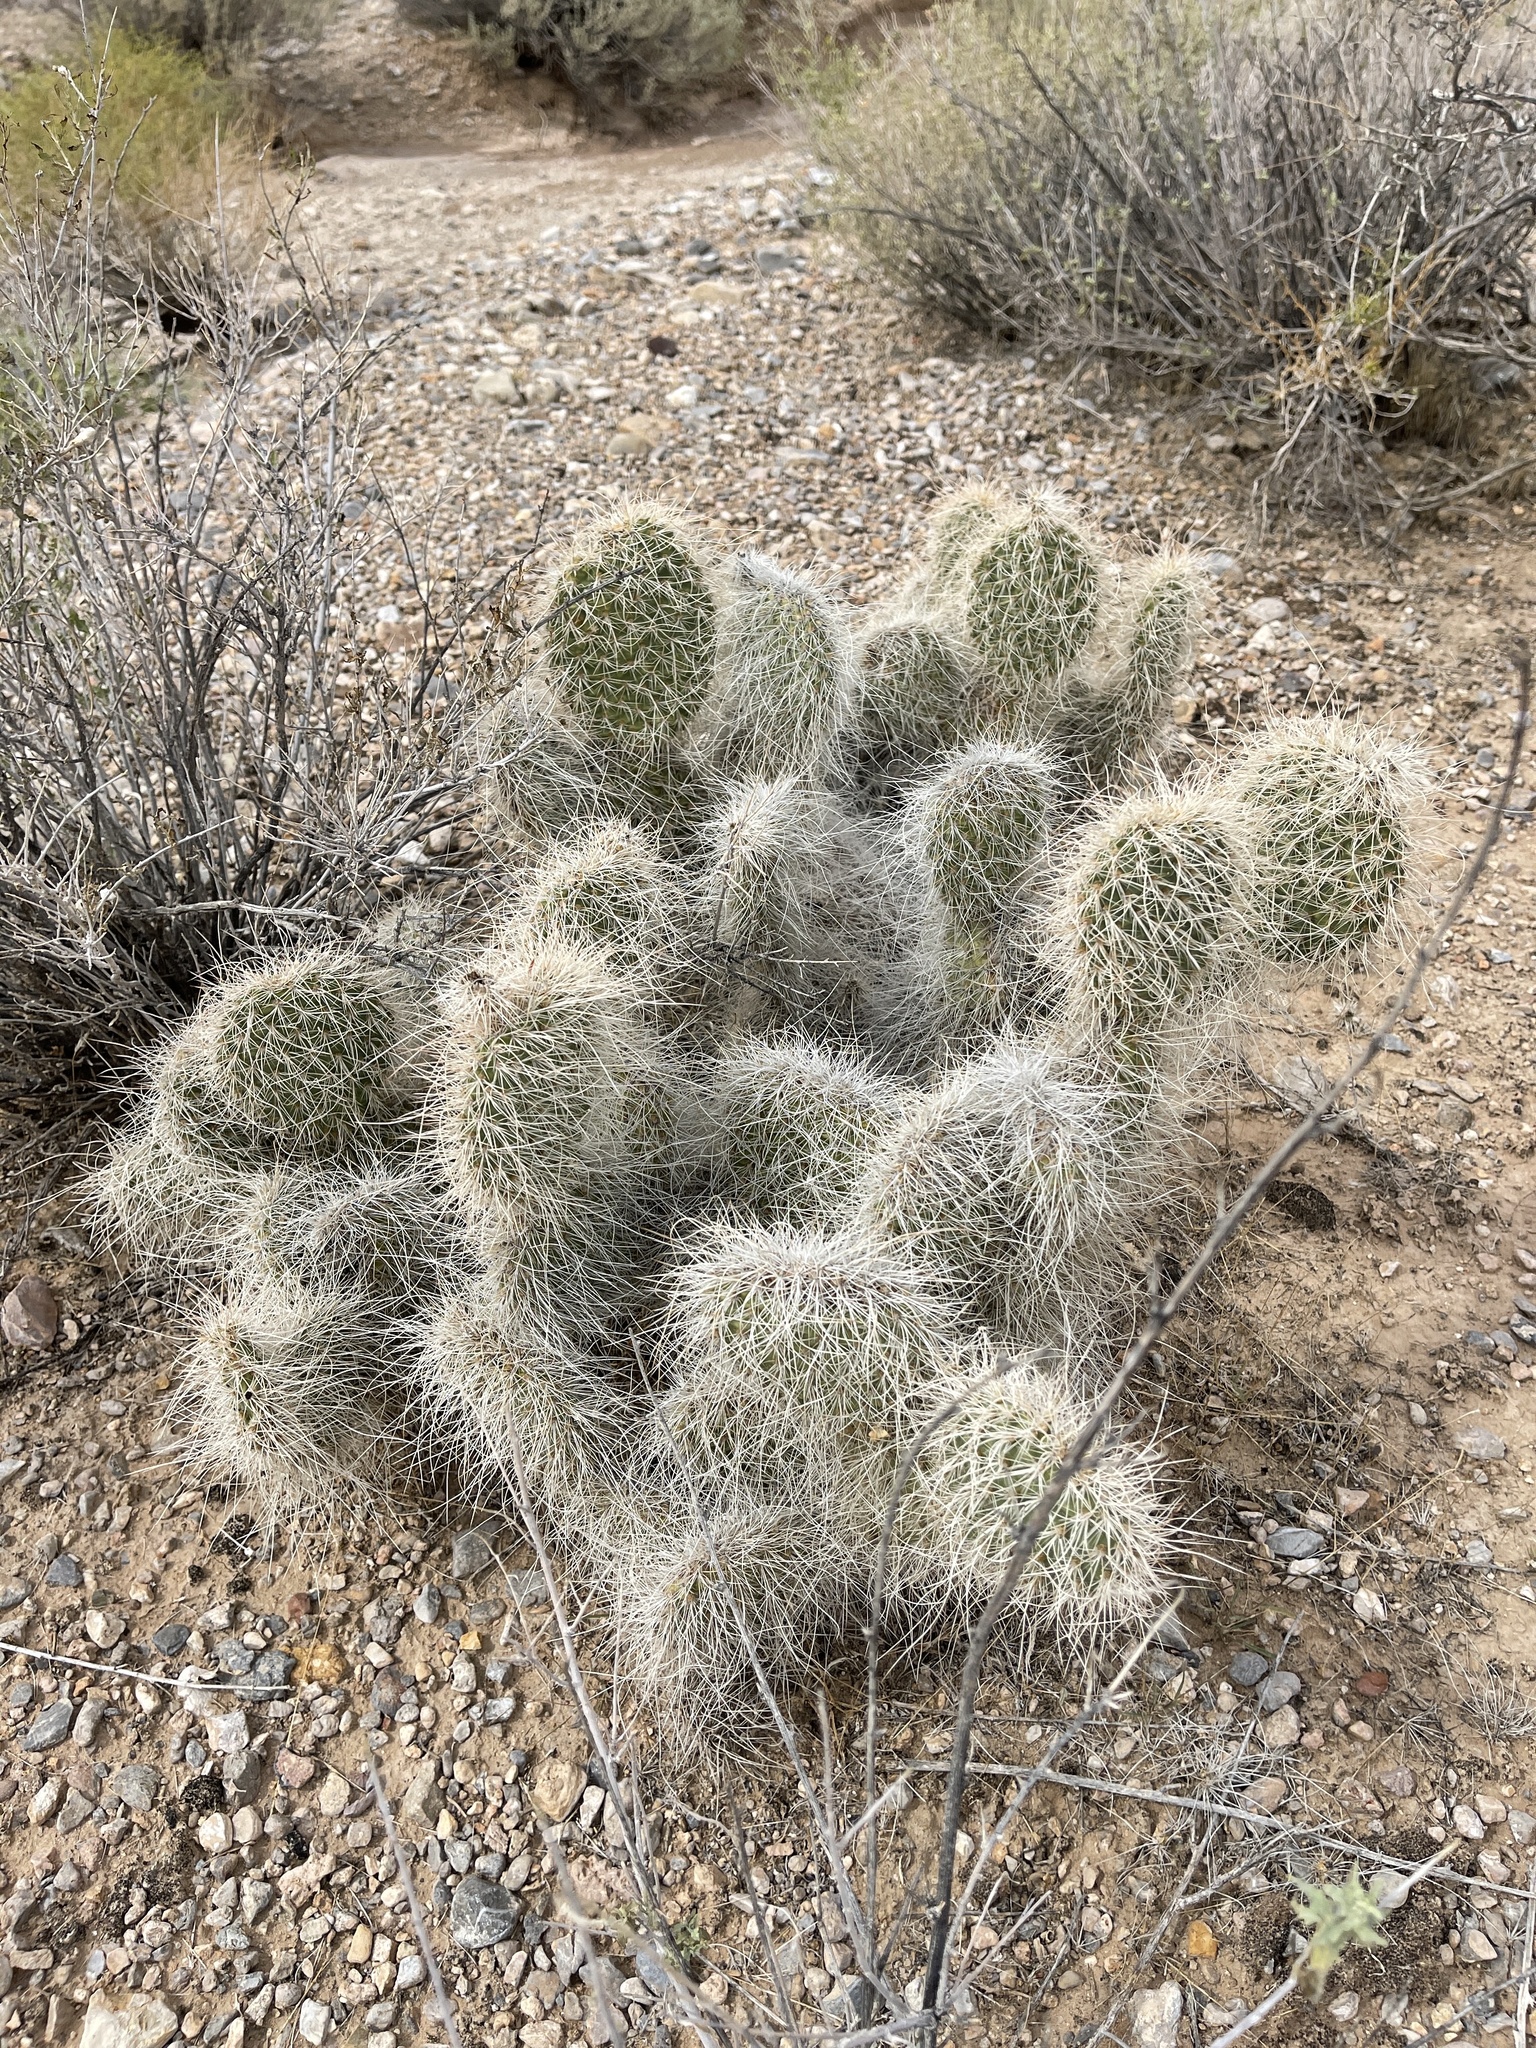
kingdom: Plantae
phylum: Tracheophyta
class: Magnoliopsida
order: Caryophyllales
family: Cactaceae
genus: Opuntia
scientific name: Opuntia polyacantha
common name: Plains prickly-pear
